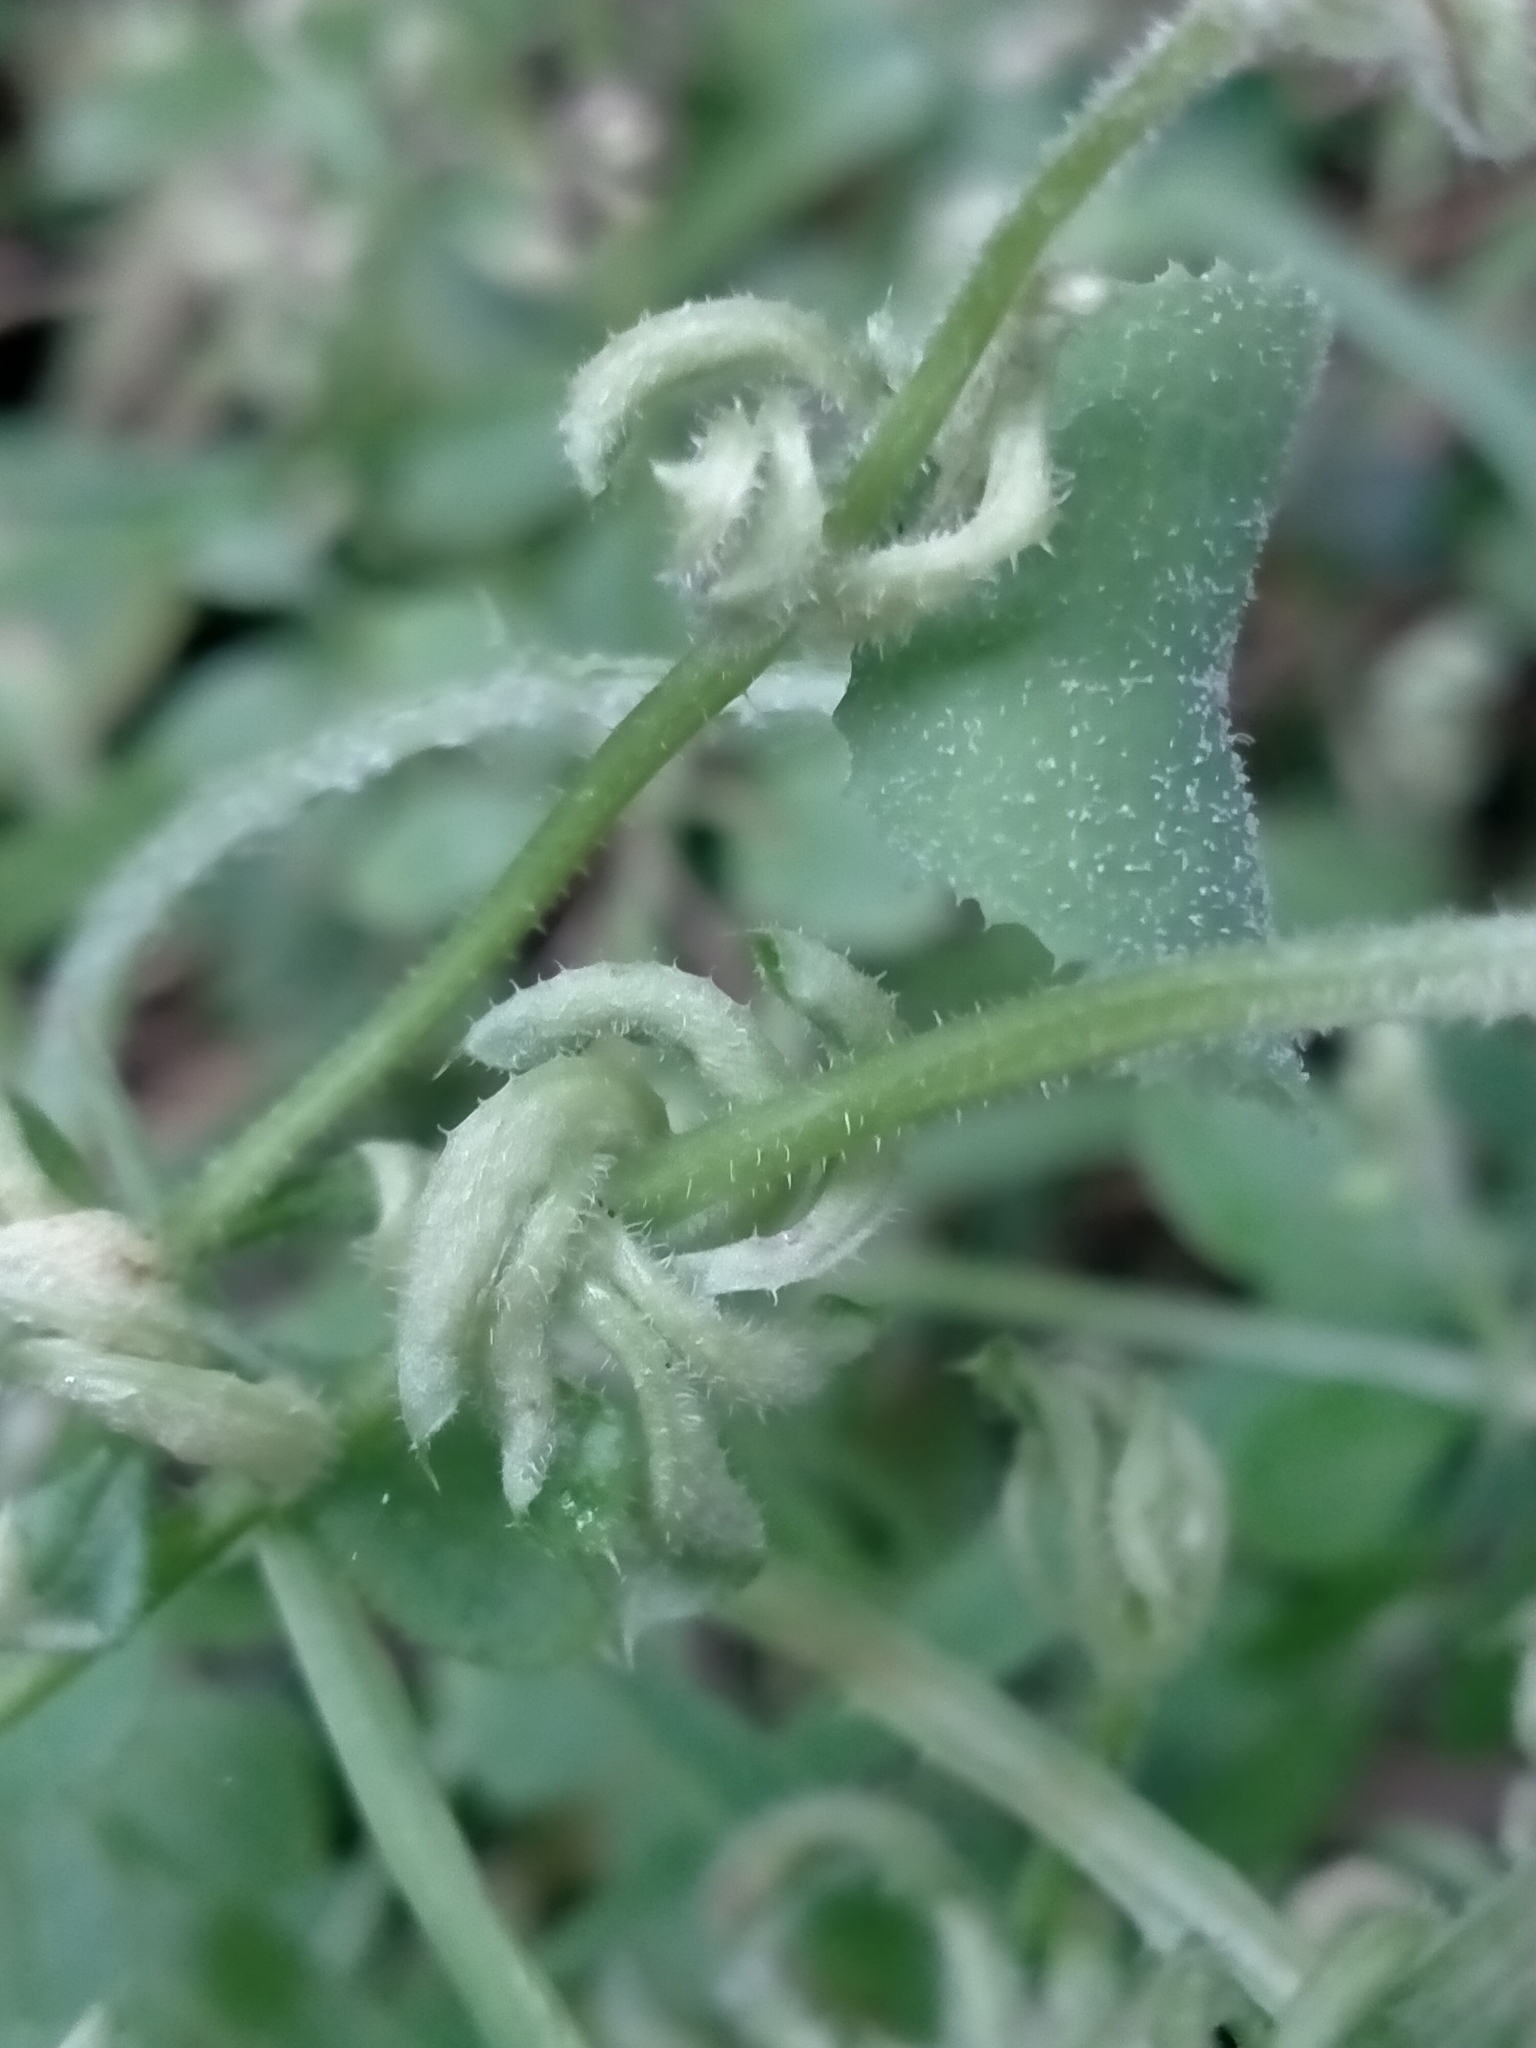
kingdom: Plantae
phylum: Tracheophyta
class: Magnoliopsida
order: Gentianales
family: Rubiaceae
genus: Galium
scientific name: Galium aparine
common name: Cleavers
